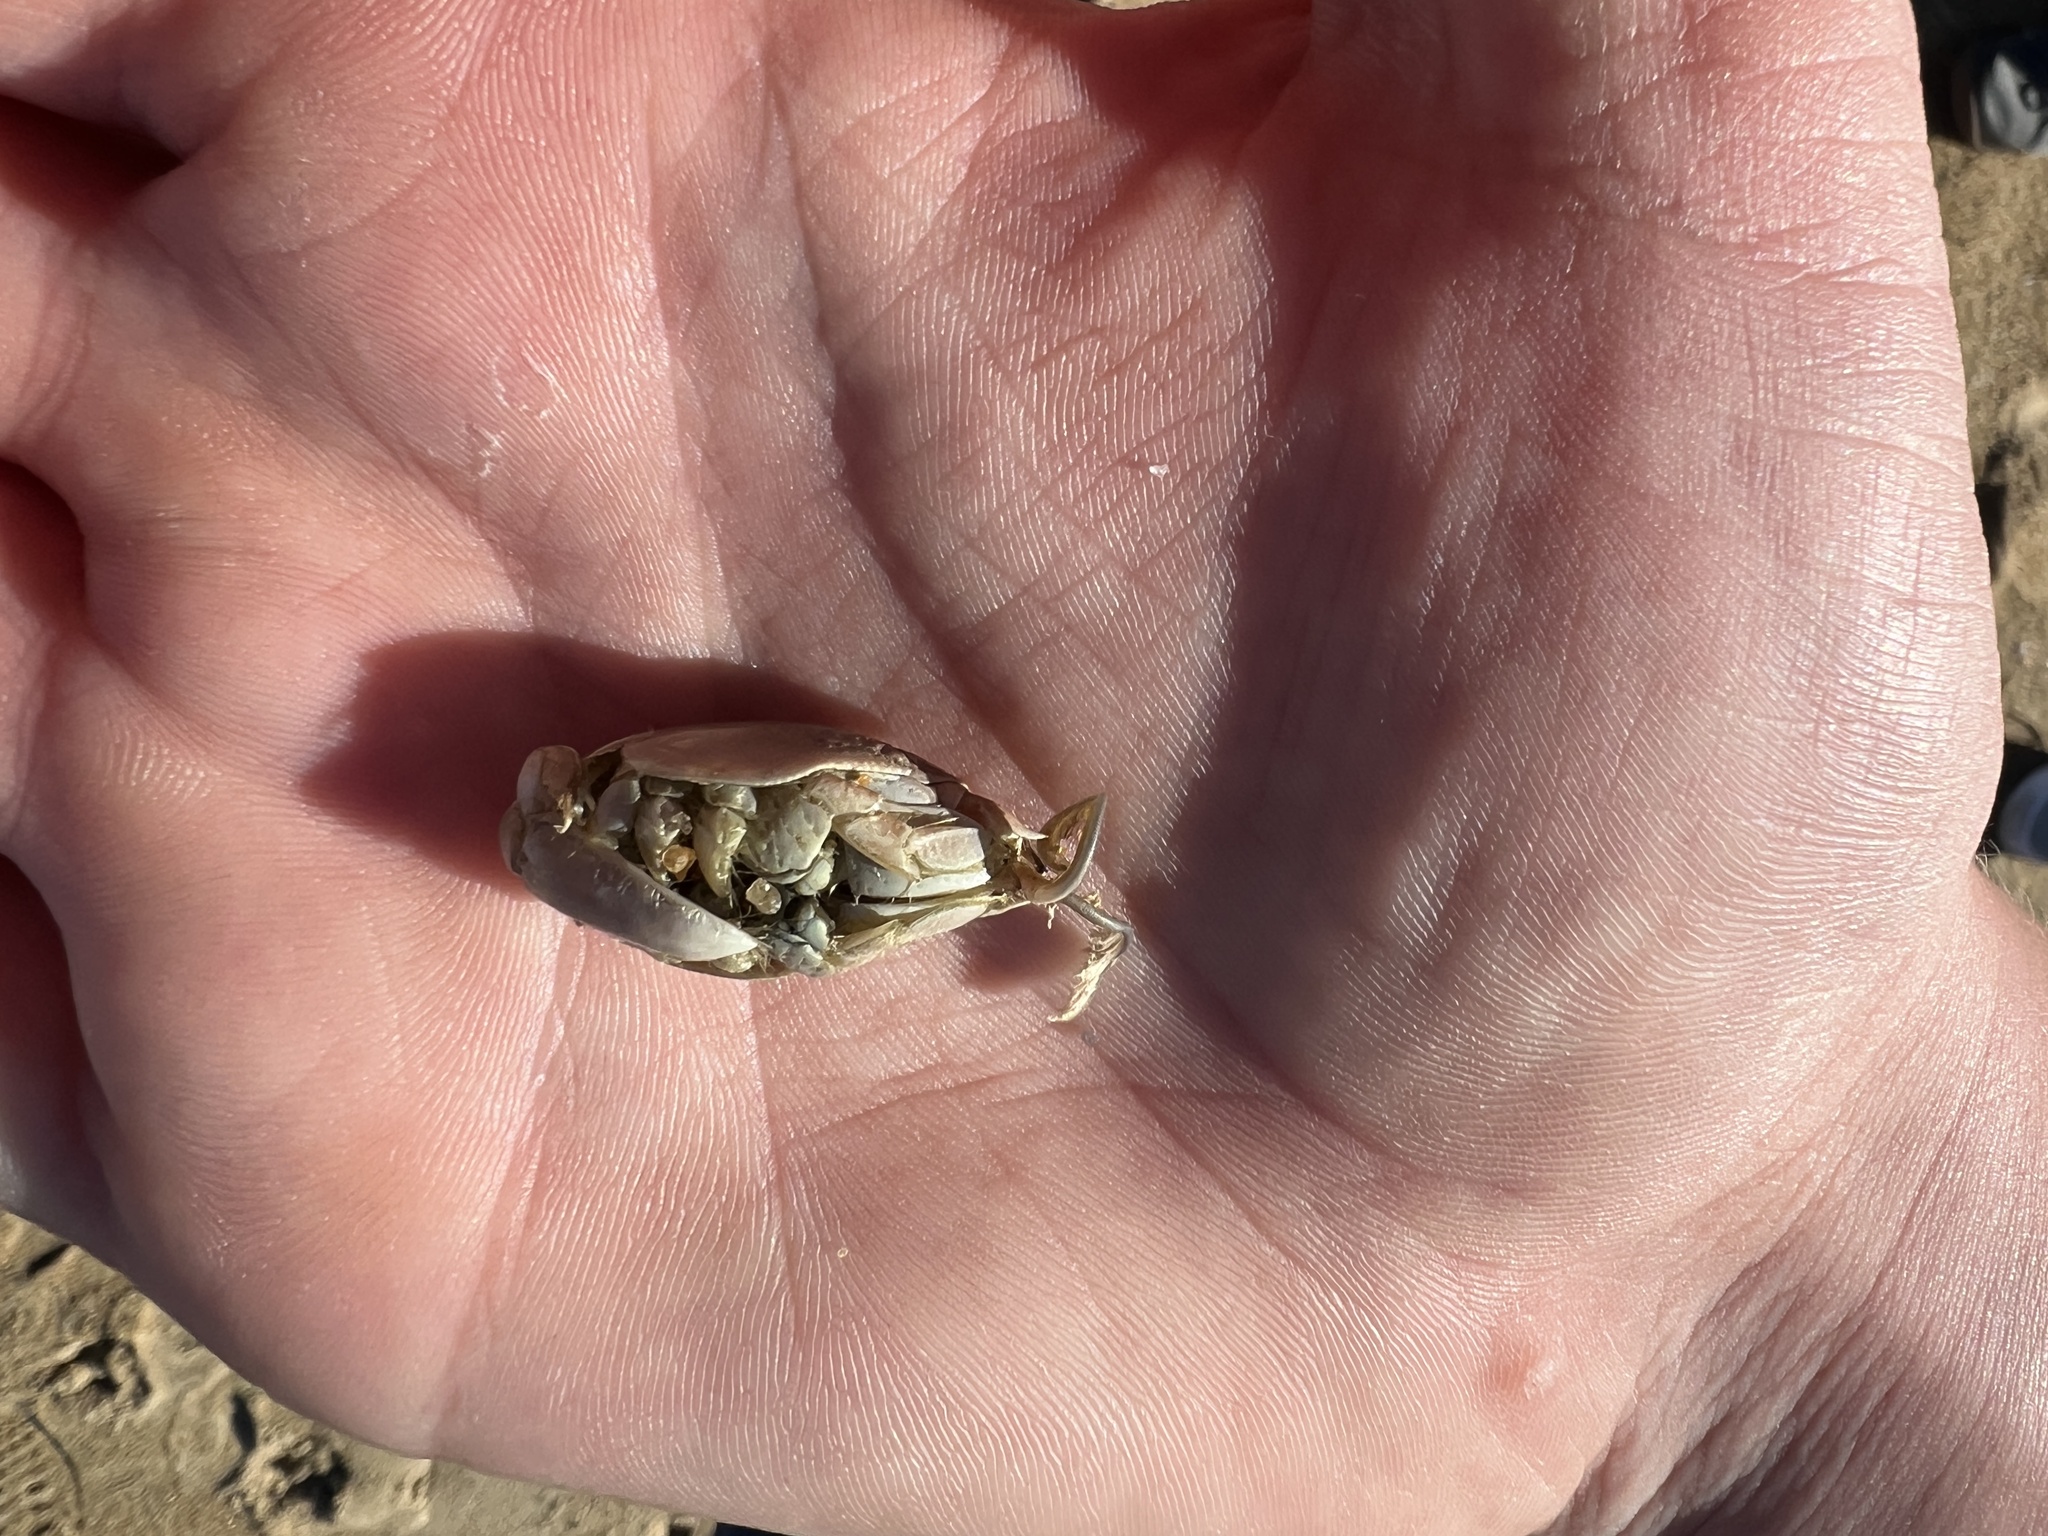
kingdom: Animalia
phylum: Arthropoda
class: Malacostraca
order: Decapoda
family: Hippidae
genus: Emerita
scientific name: Emerita talpoida
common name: Atlantic sand crab
